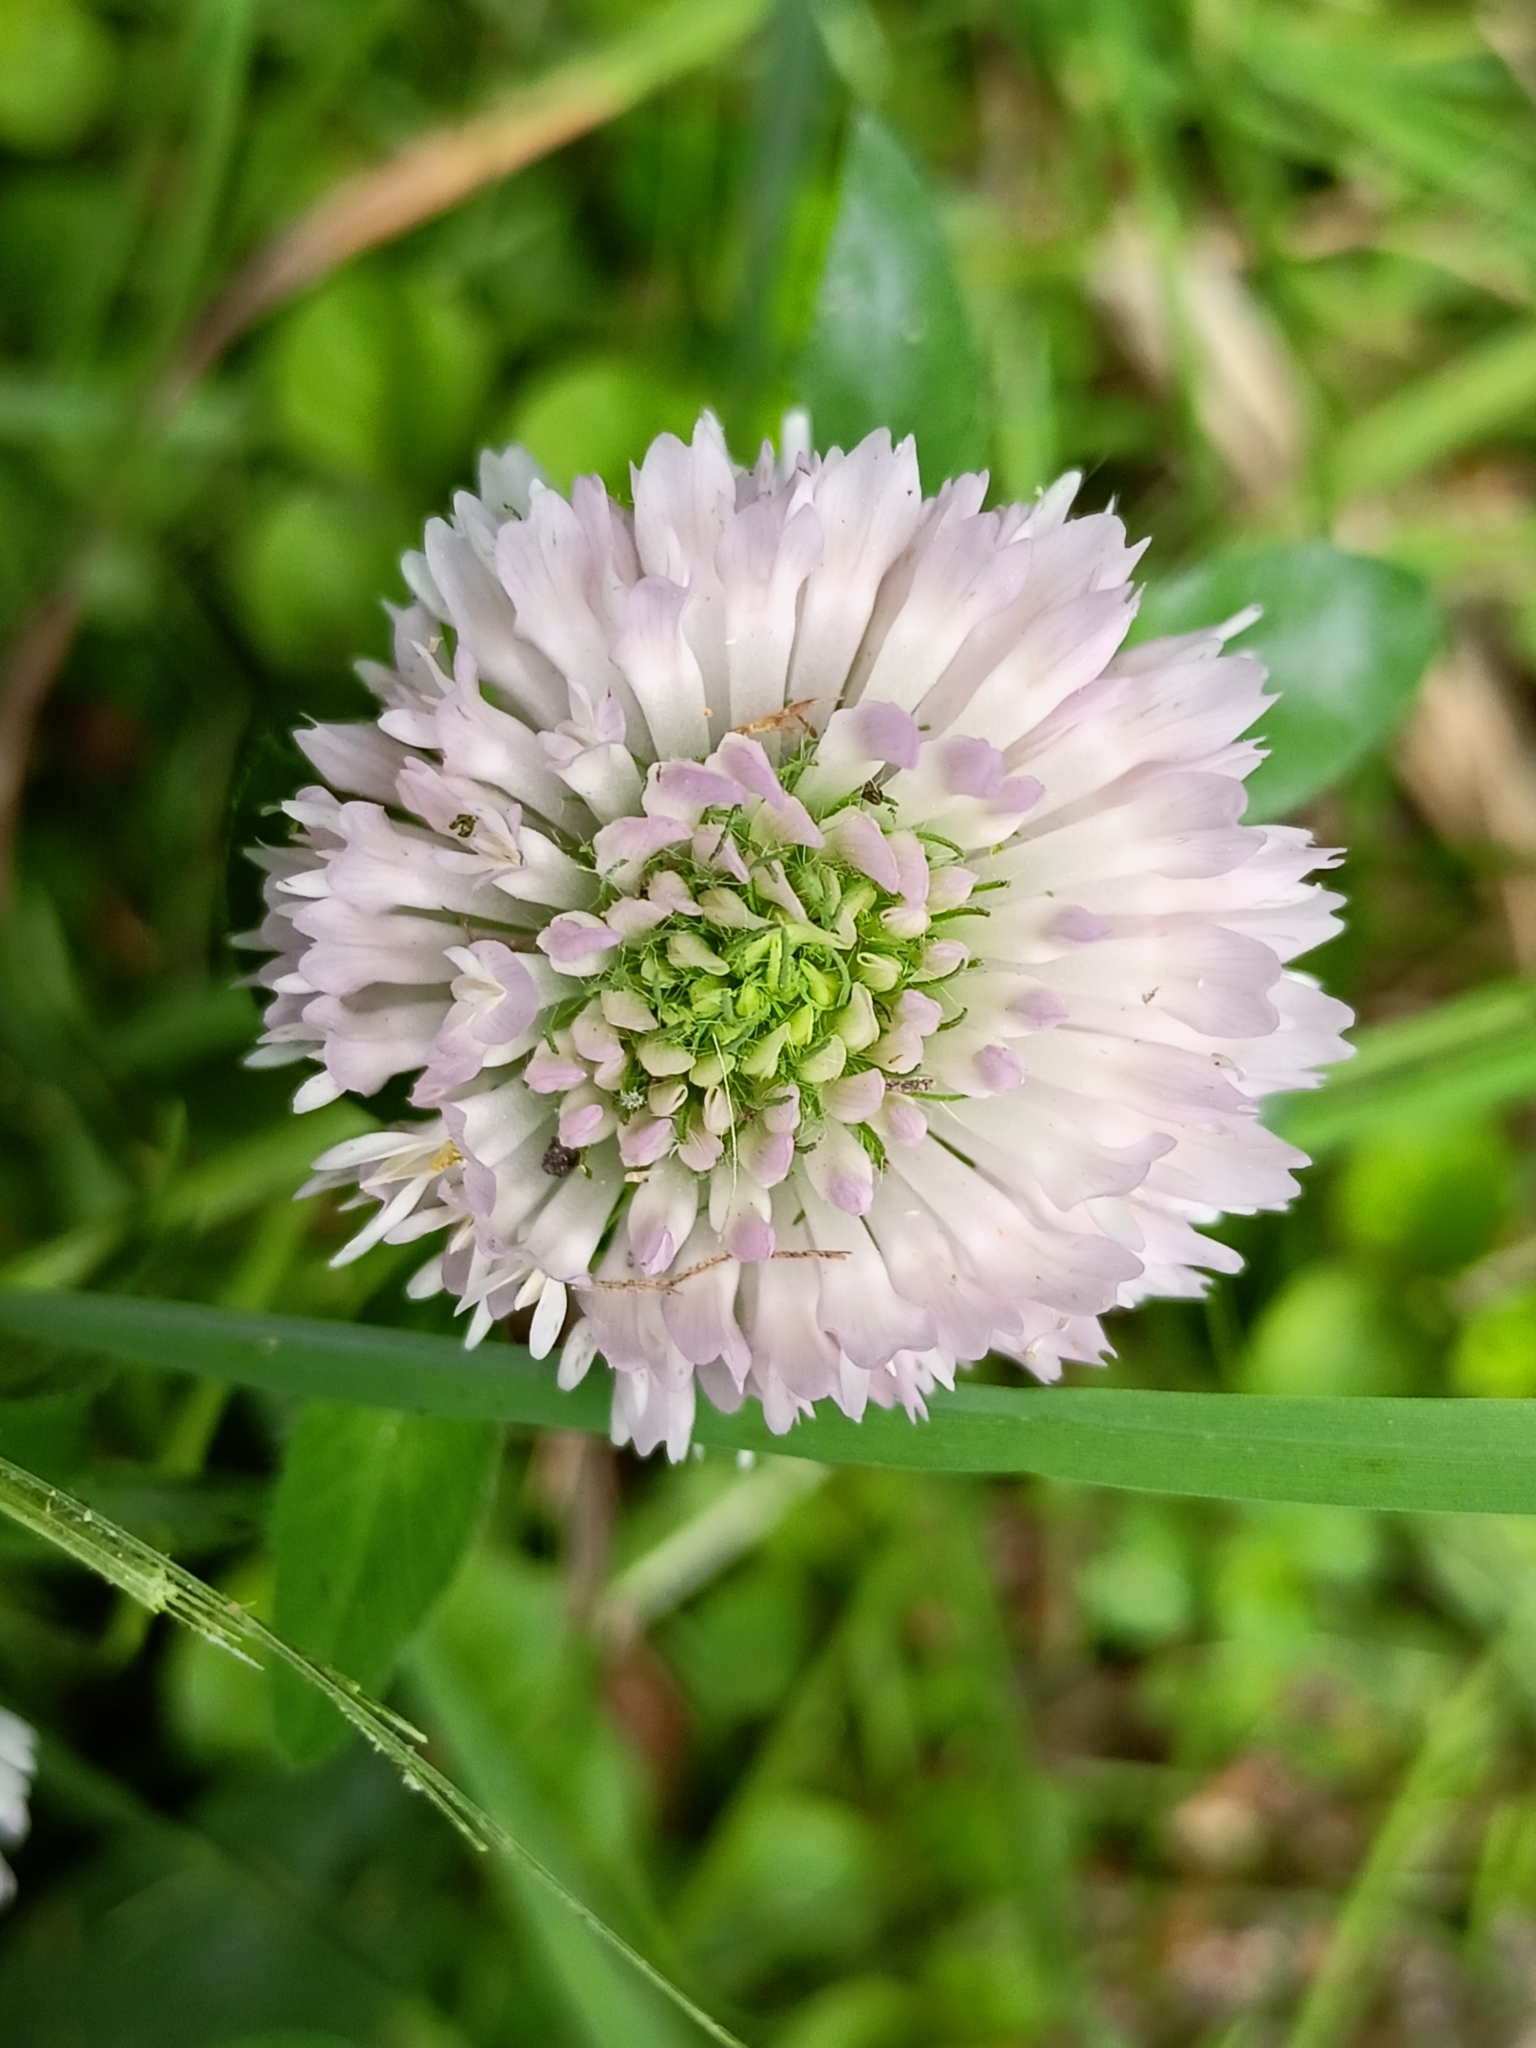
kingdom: Plantae
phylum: Tracheophyta
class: Magnoliopsida
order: Fabales
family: Fabaceae
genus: Trifolium
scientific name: Trifolium pratense
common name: Red clover
